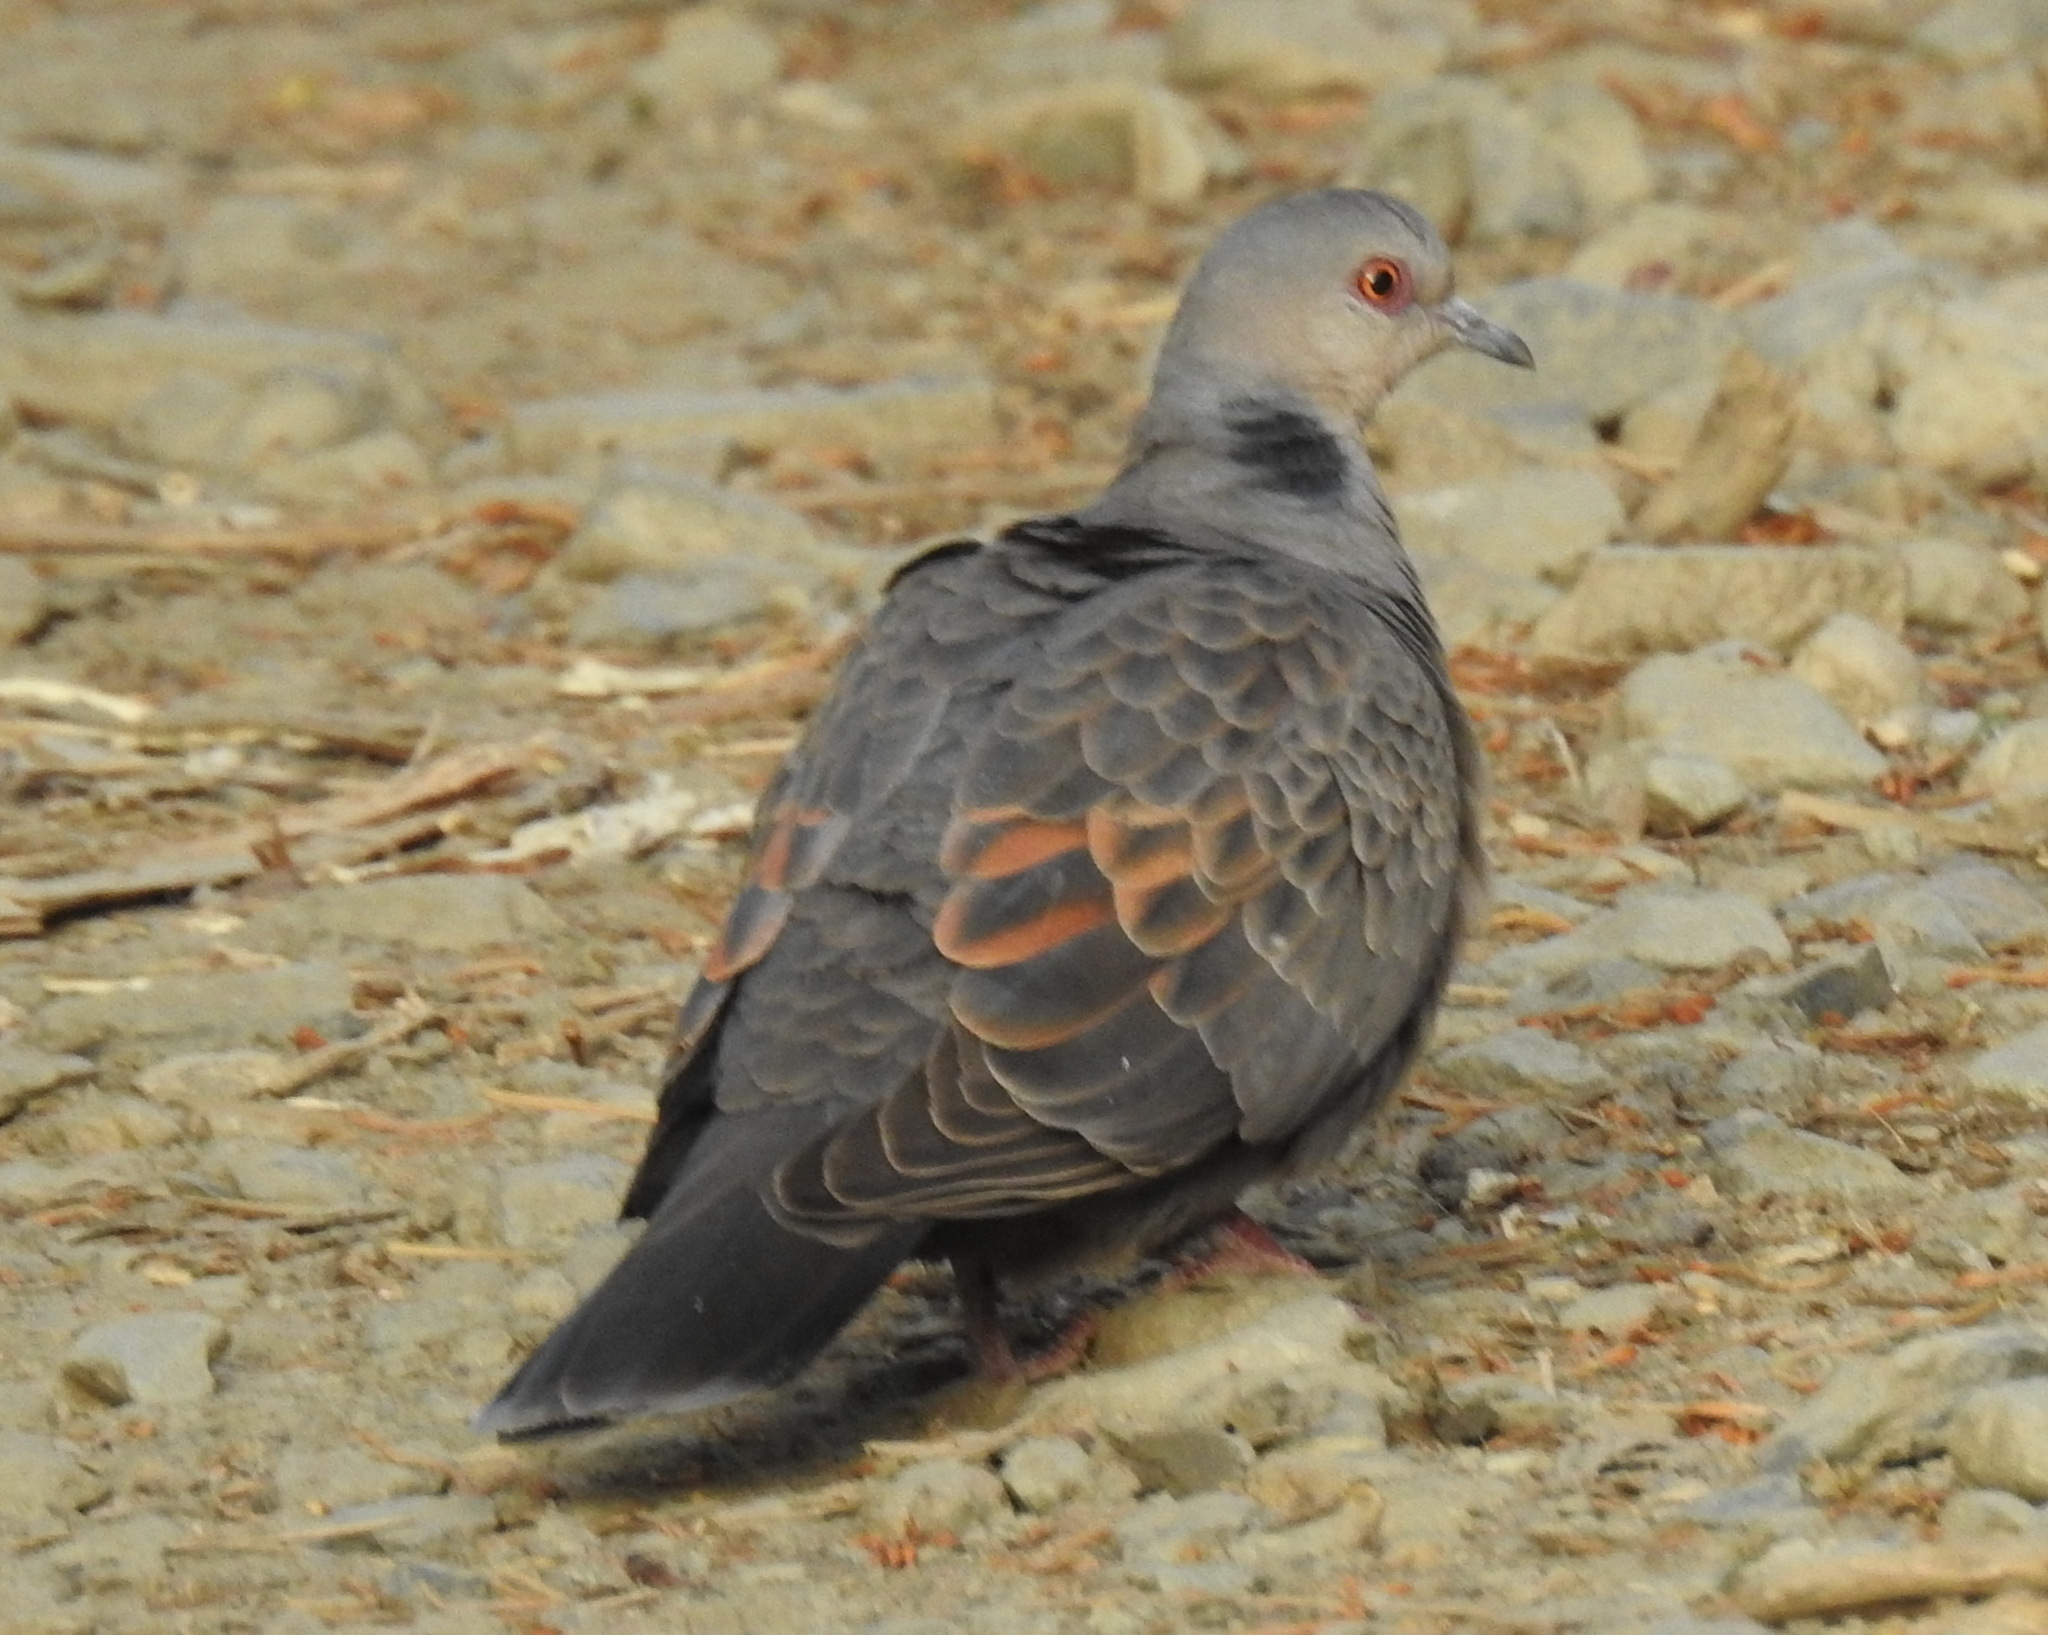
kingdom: Animalia
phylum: Chordata
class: Aves
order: Columbiformes
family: Columbidae
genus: Streptopelia
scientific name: Streptopelia lugens
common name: Dusky turtle dove
